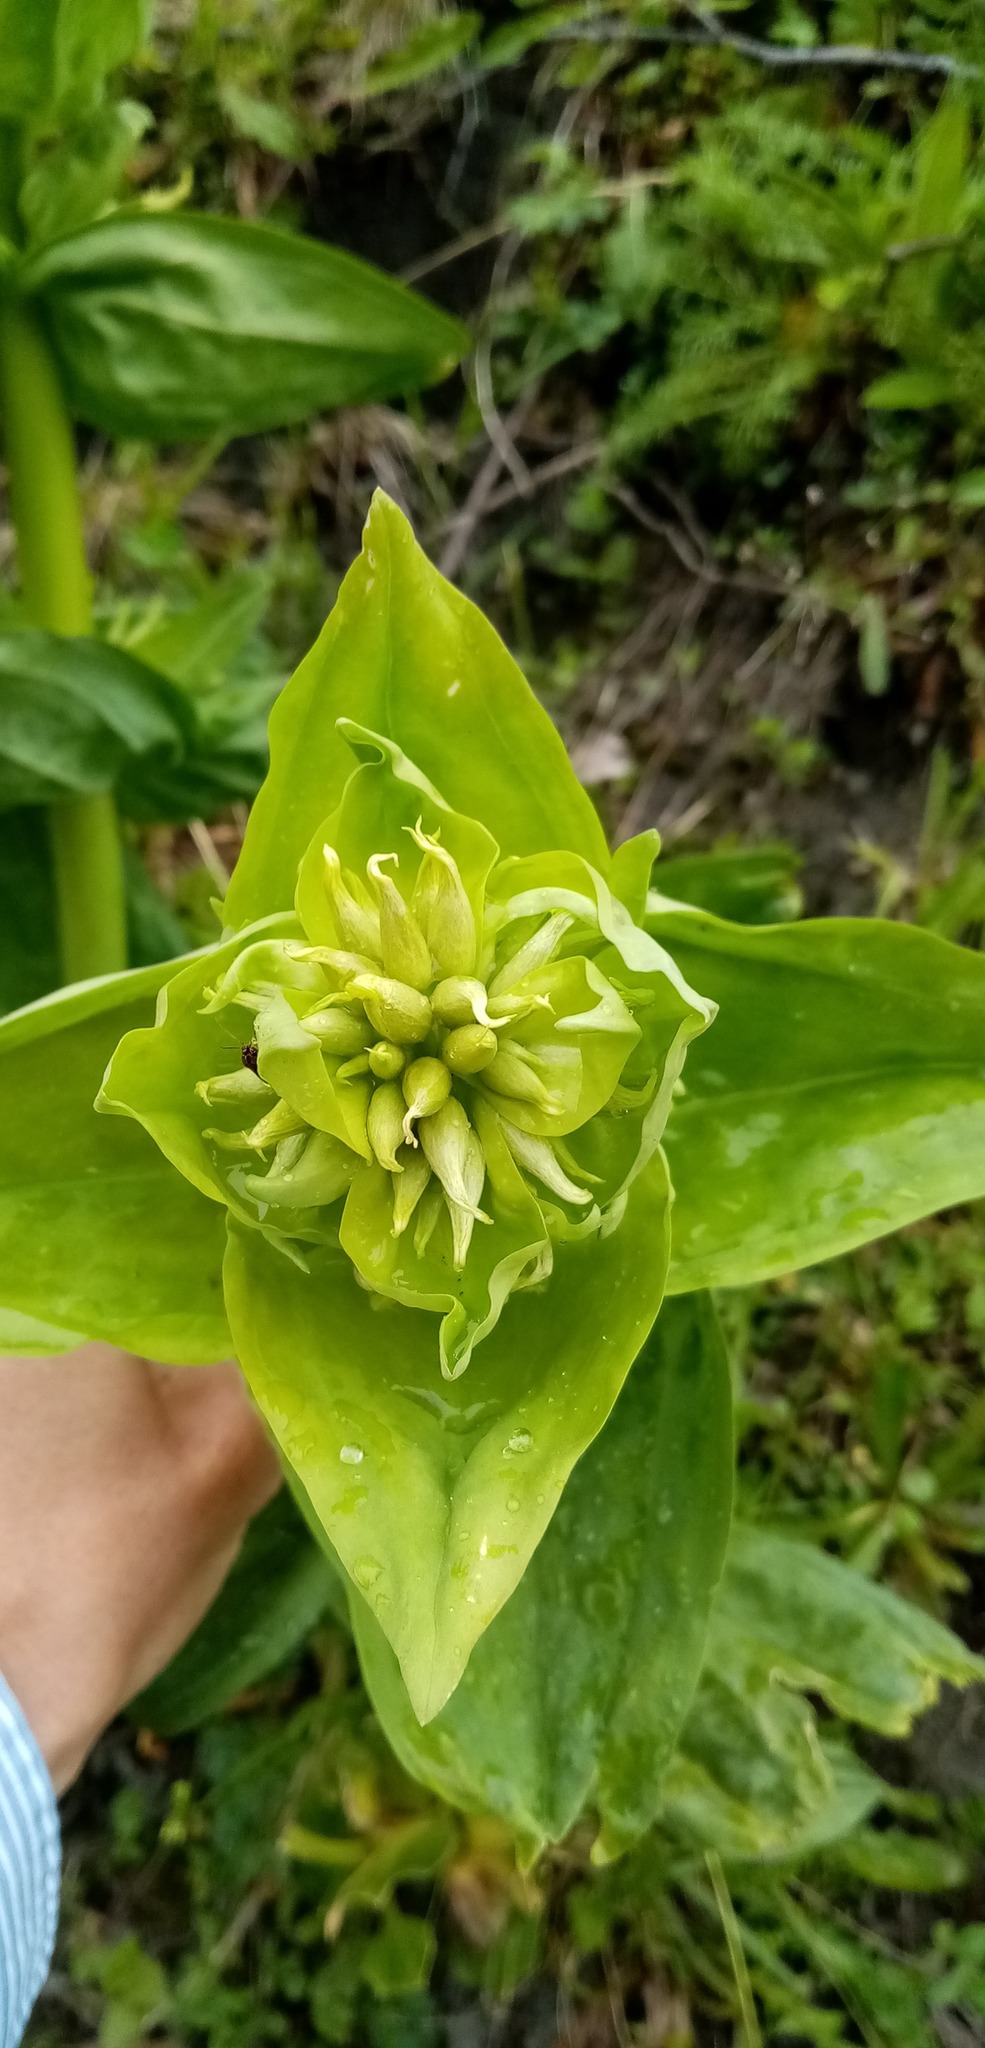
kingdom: Plantae
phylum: Tracheophyta
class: Magnoliopsida
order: Gentianales
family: Gentianaceae
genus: Gentiana
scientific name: Gentiana lutea
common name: Great yellow gentian
